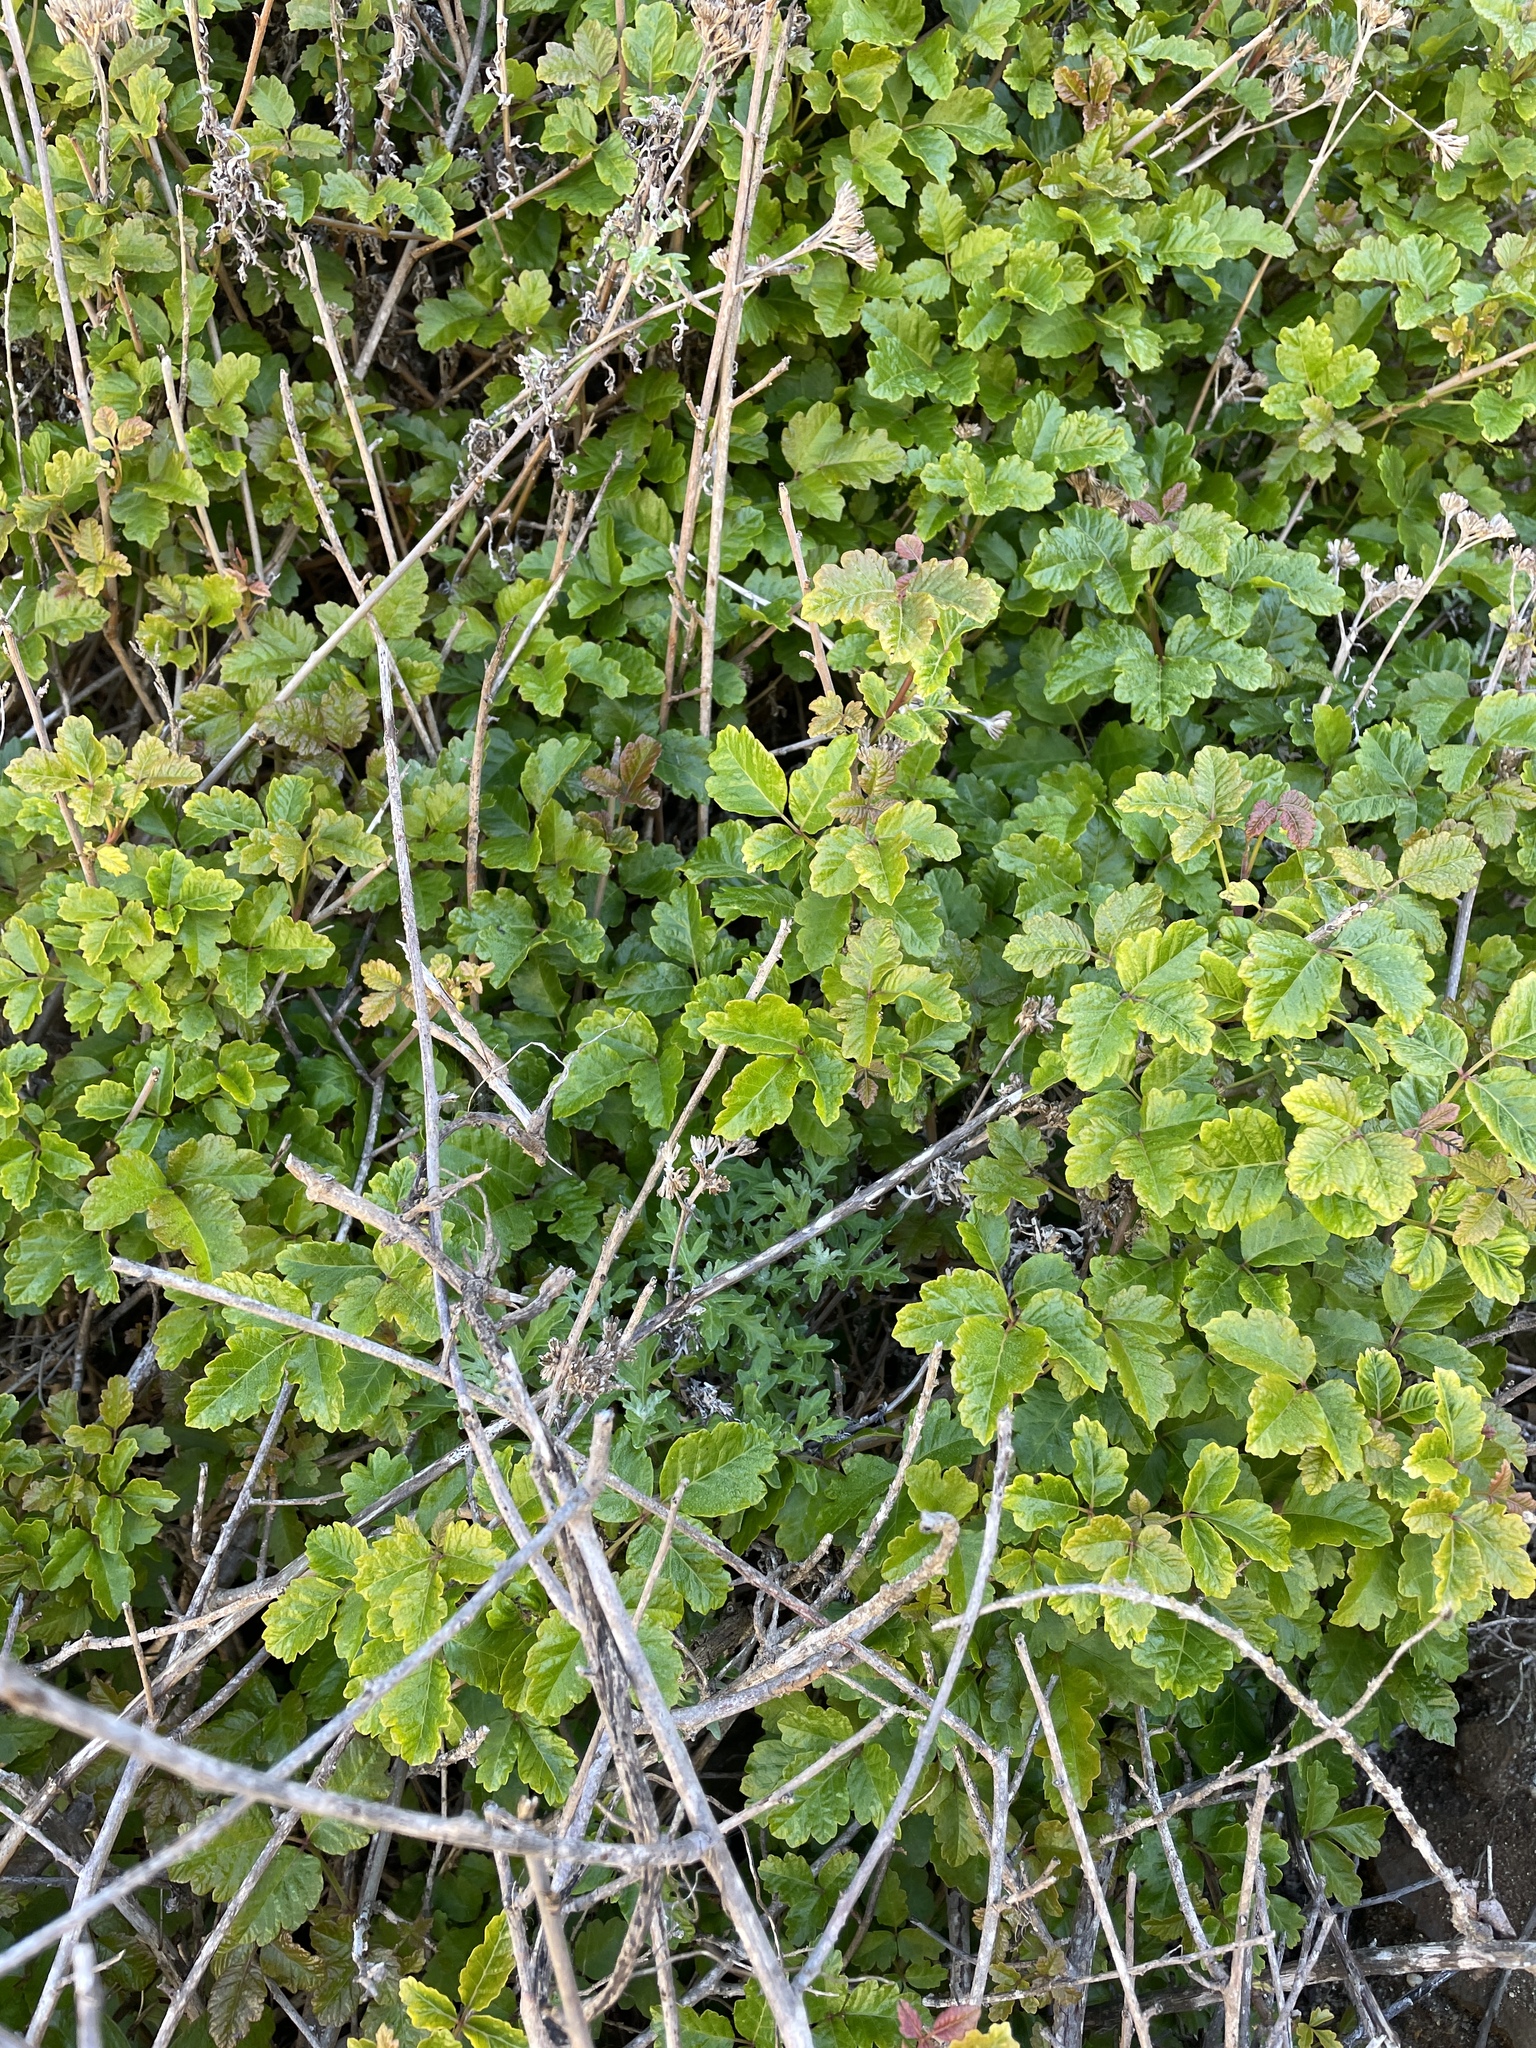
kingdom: Plantae
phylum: Tracheophyta
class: Magnoliopsida
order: Sapindales
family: Anacardiaceae
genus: Toxicodendron
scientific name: Toxicodendron diversilobum
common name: Pacific poison-oak
